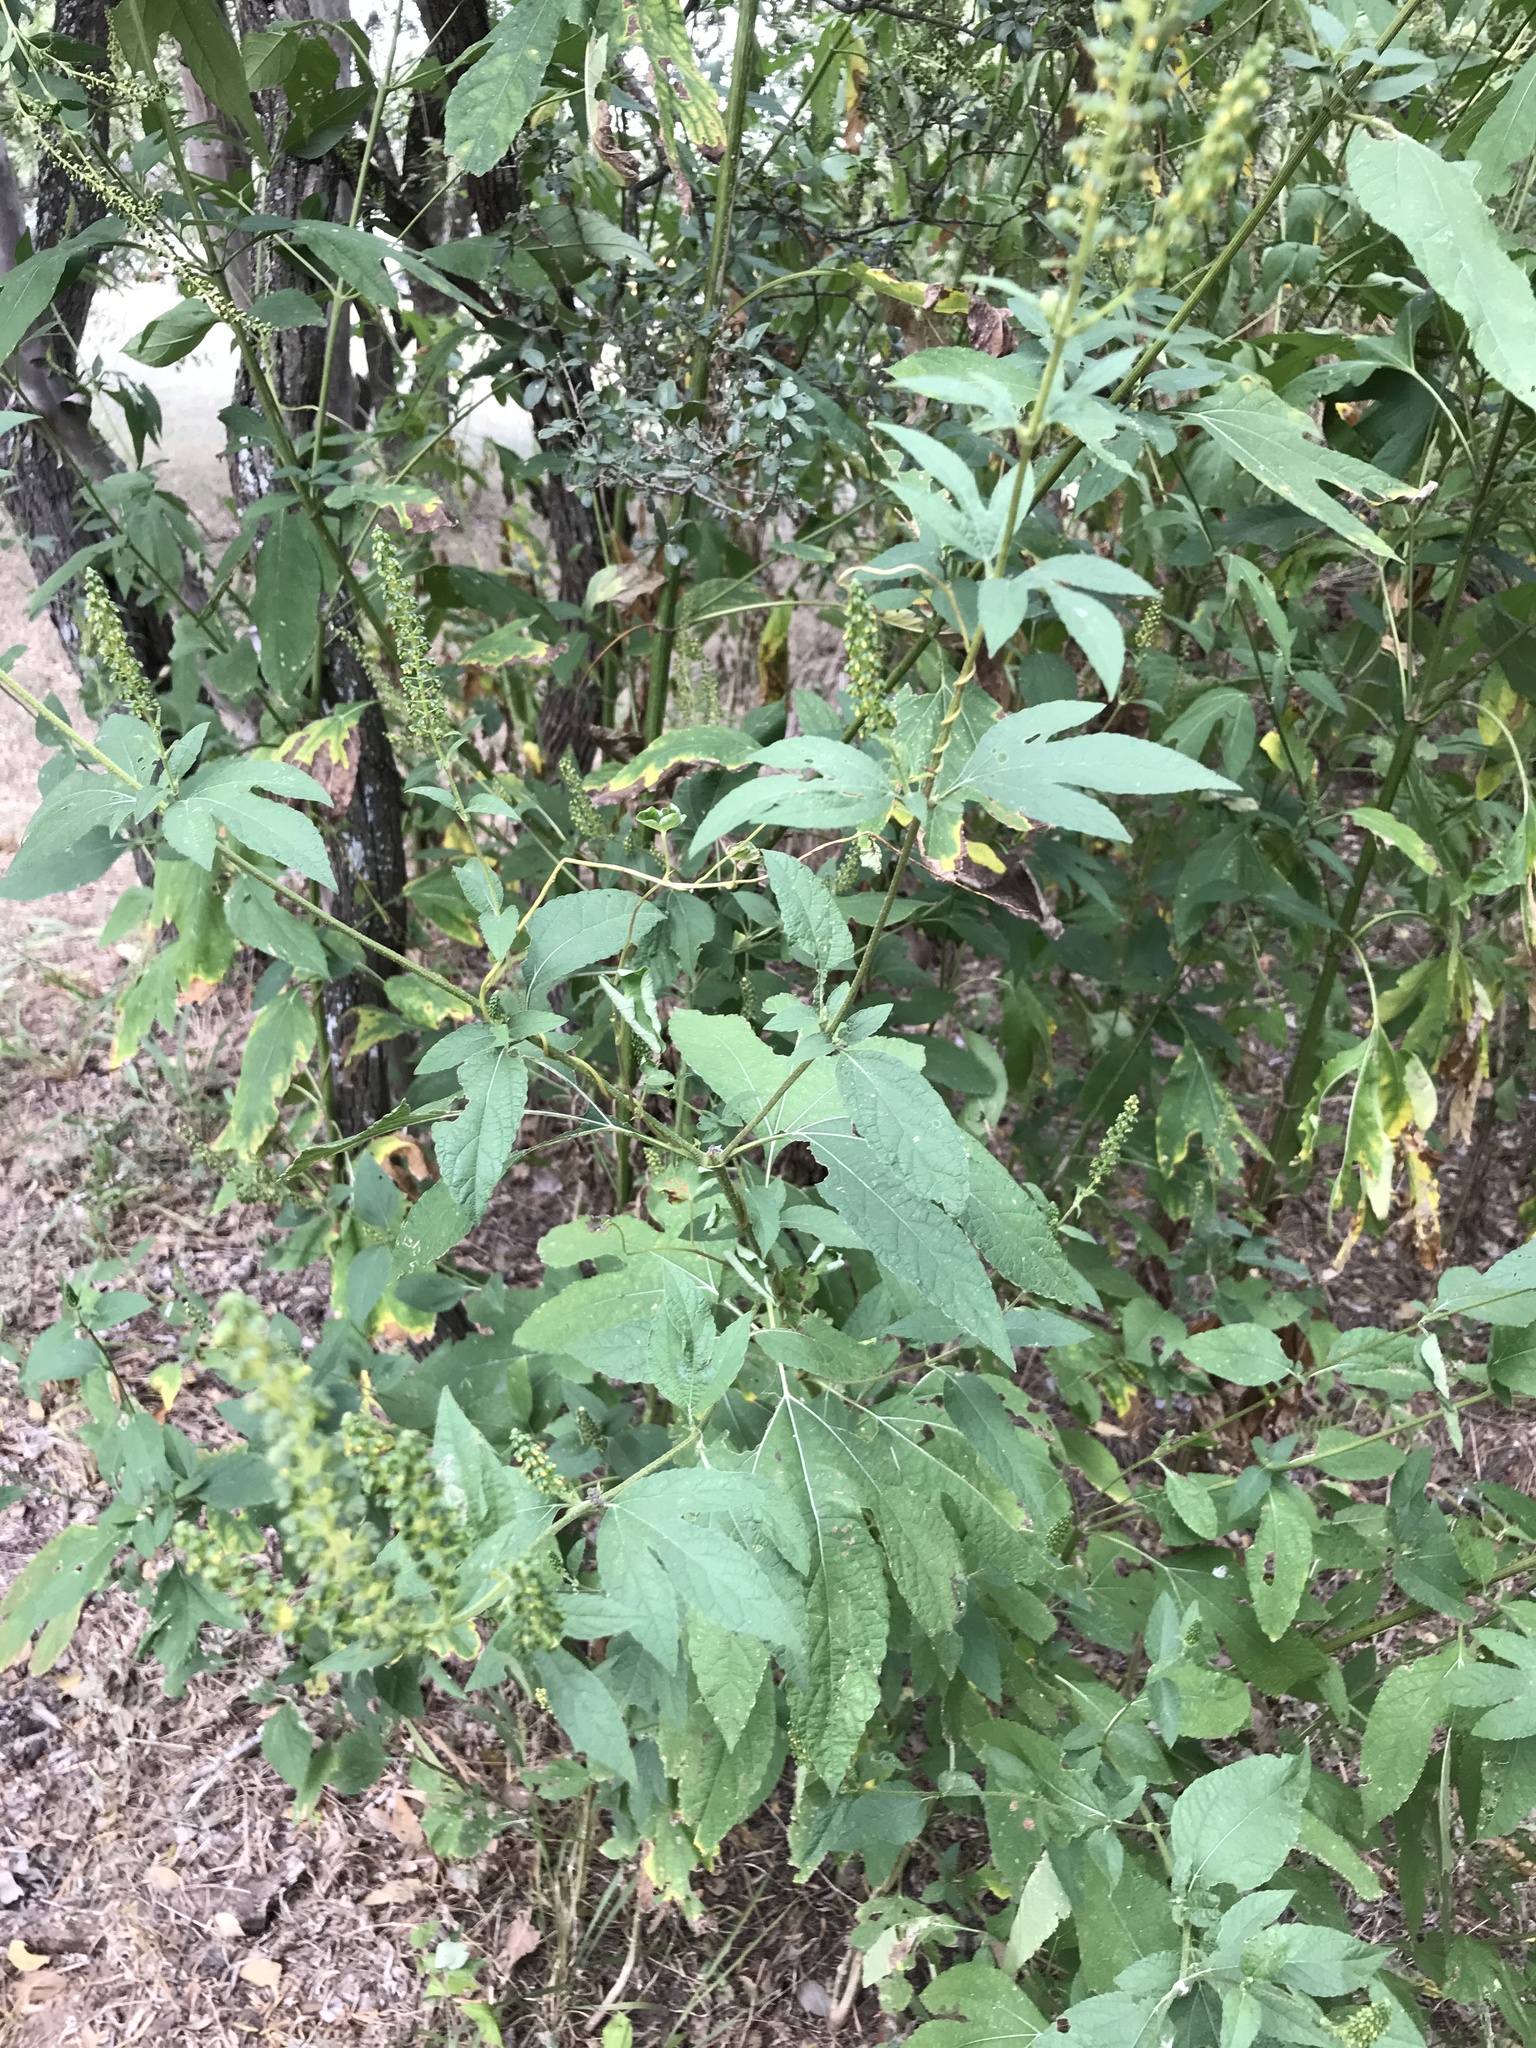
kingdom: Plantae
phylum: Tracheophyta
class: Magnoliopsida
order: Asterales
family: Asteraceae
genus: Ambrosia
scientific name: Ambrosia trifida
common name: Giant ragweed
